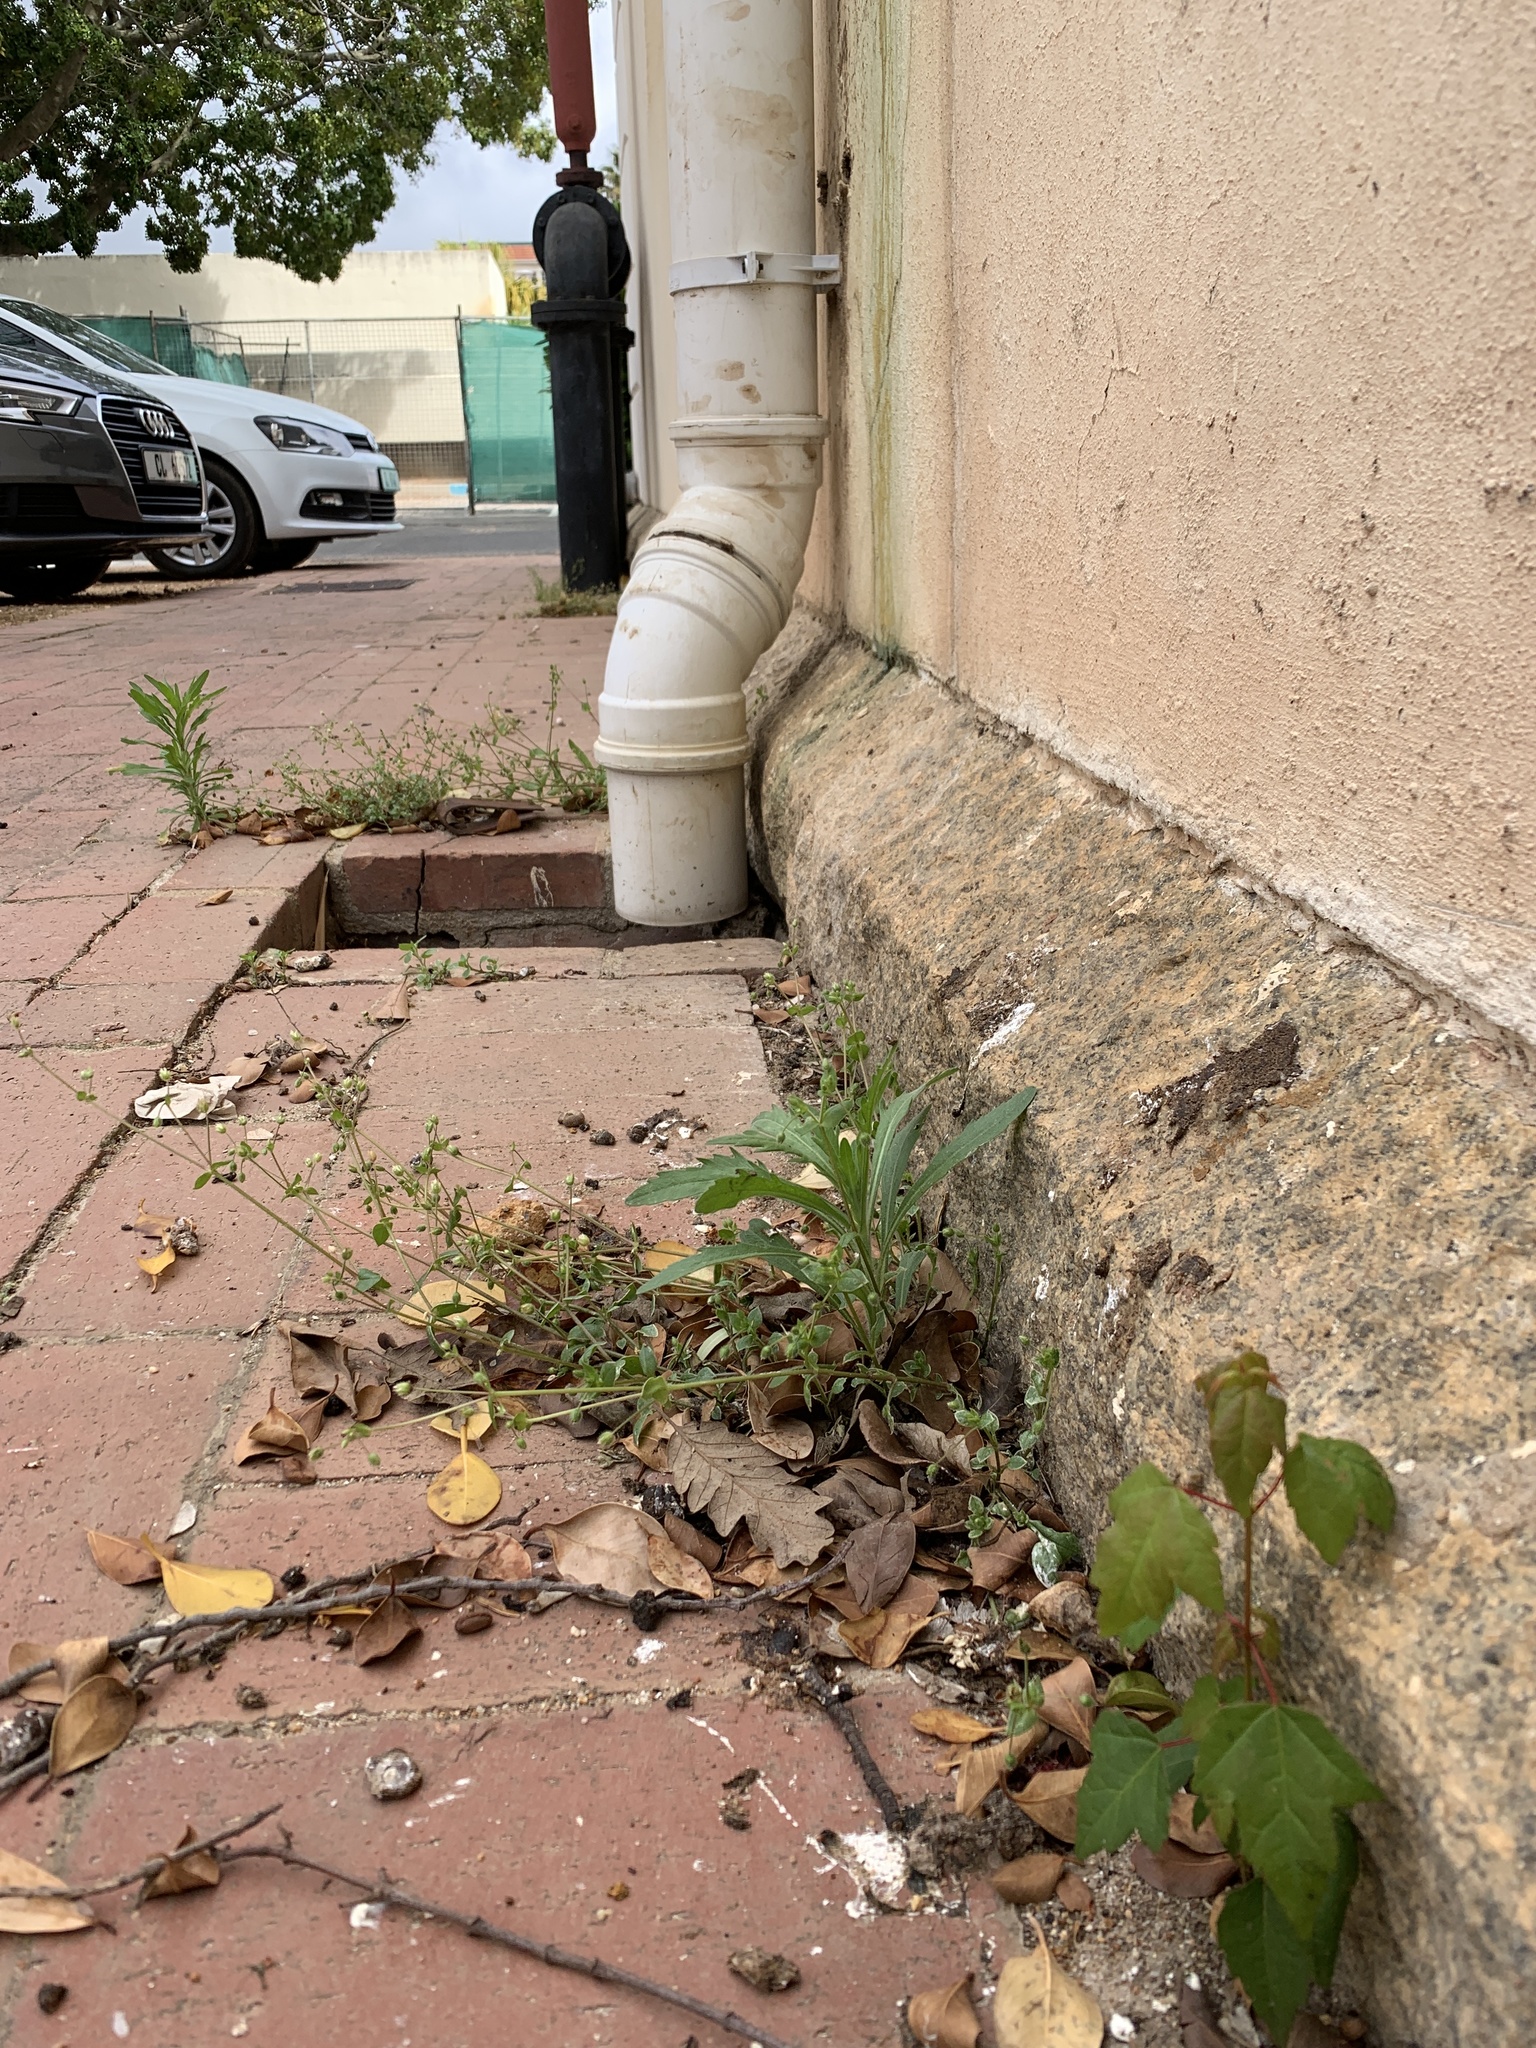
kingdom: Plantae
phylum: Tracheophyta
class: Magnoliopsida
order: Sapindales
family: Sapindaceae
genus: Acer
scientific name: Acer buergerianum
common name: Trident maple
